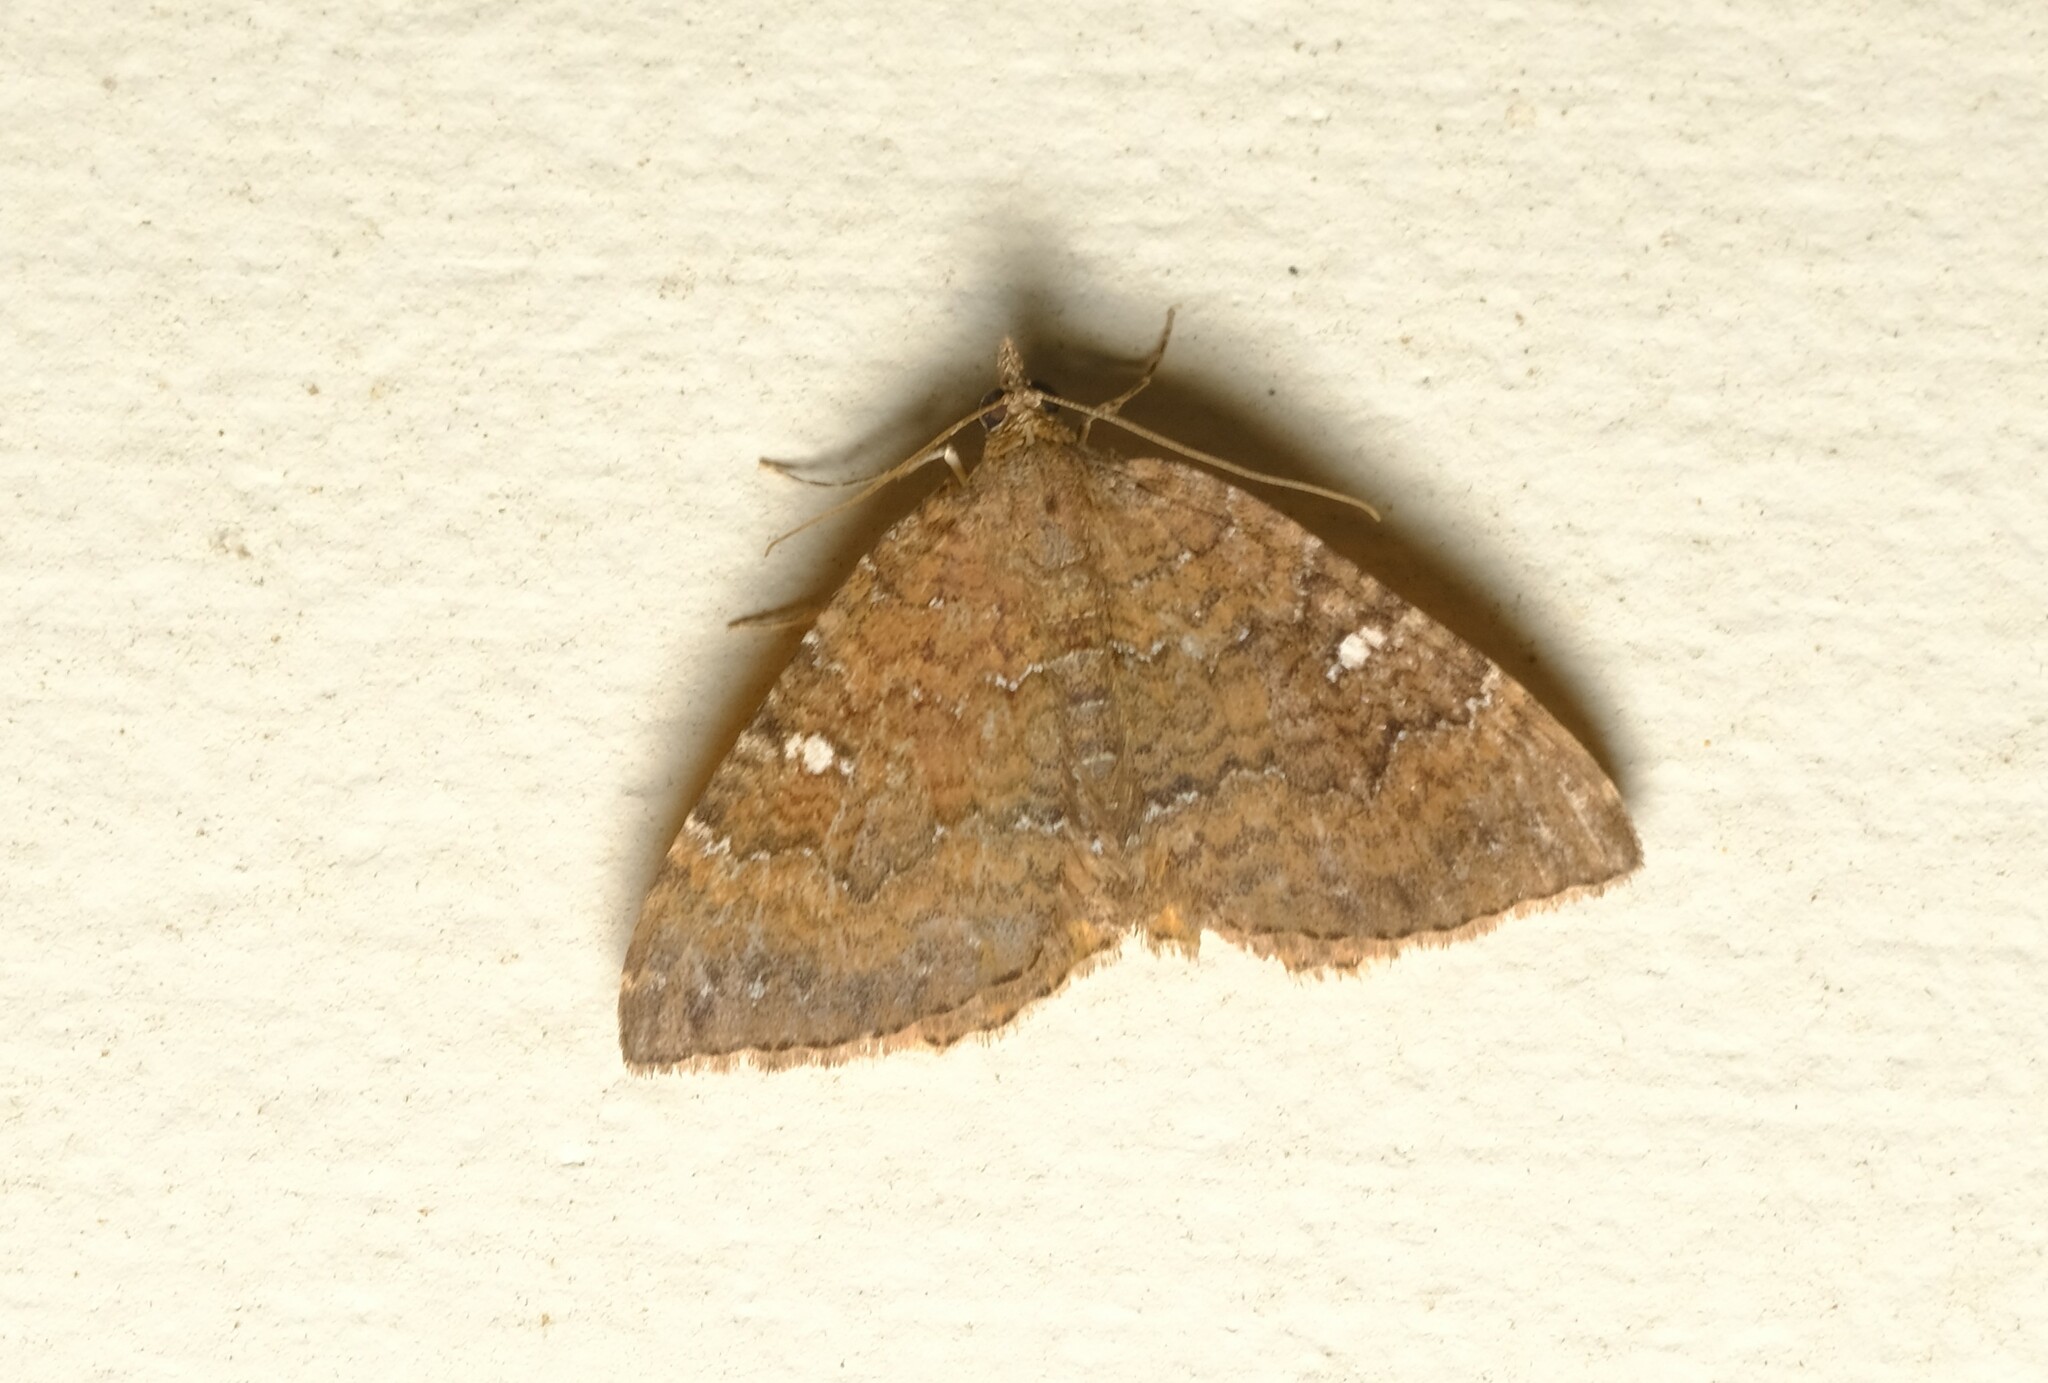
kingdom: Animalia
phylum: Arthropoda
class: Insecta
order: Lepidoptera
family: Geometridae
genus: Chrysolarentia
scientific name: Chrysolarentia
